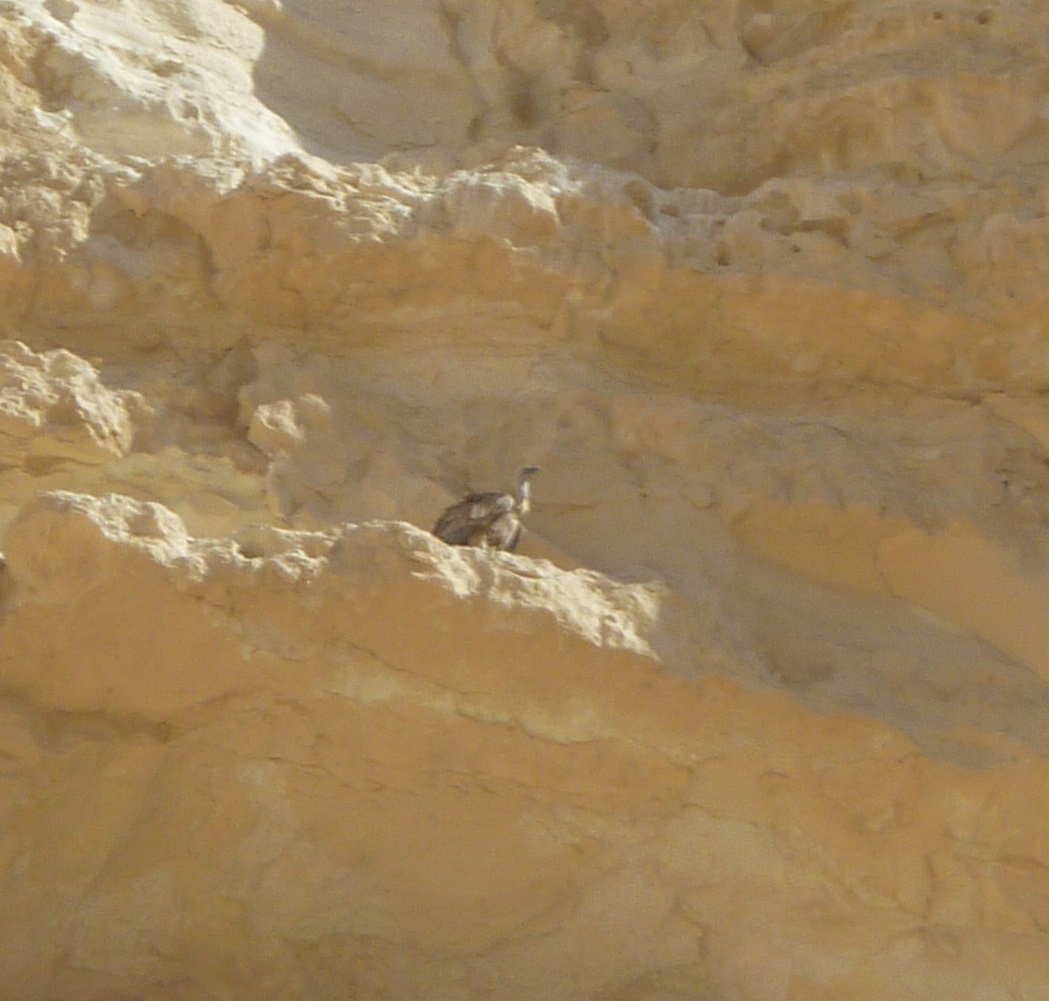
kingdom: Animalia
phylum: Chordata
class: Aves
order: Accipitriformes
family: Accipitridae
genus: Gyps
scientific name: Gyps fulvus
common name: Griffon vulture
